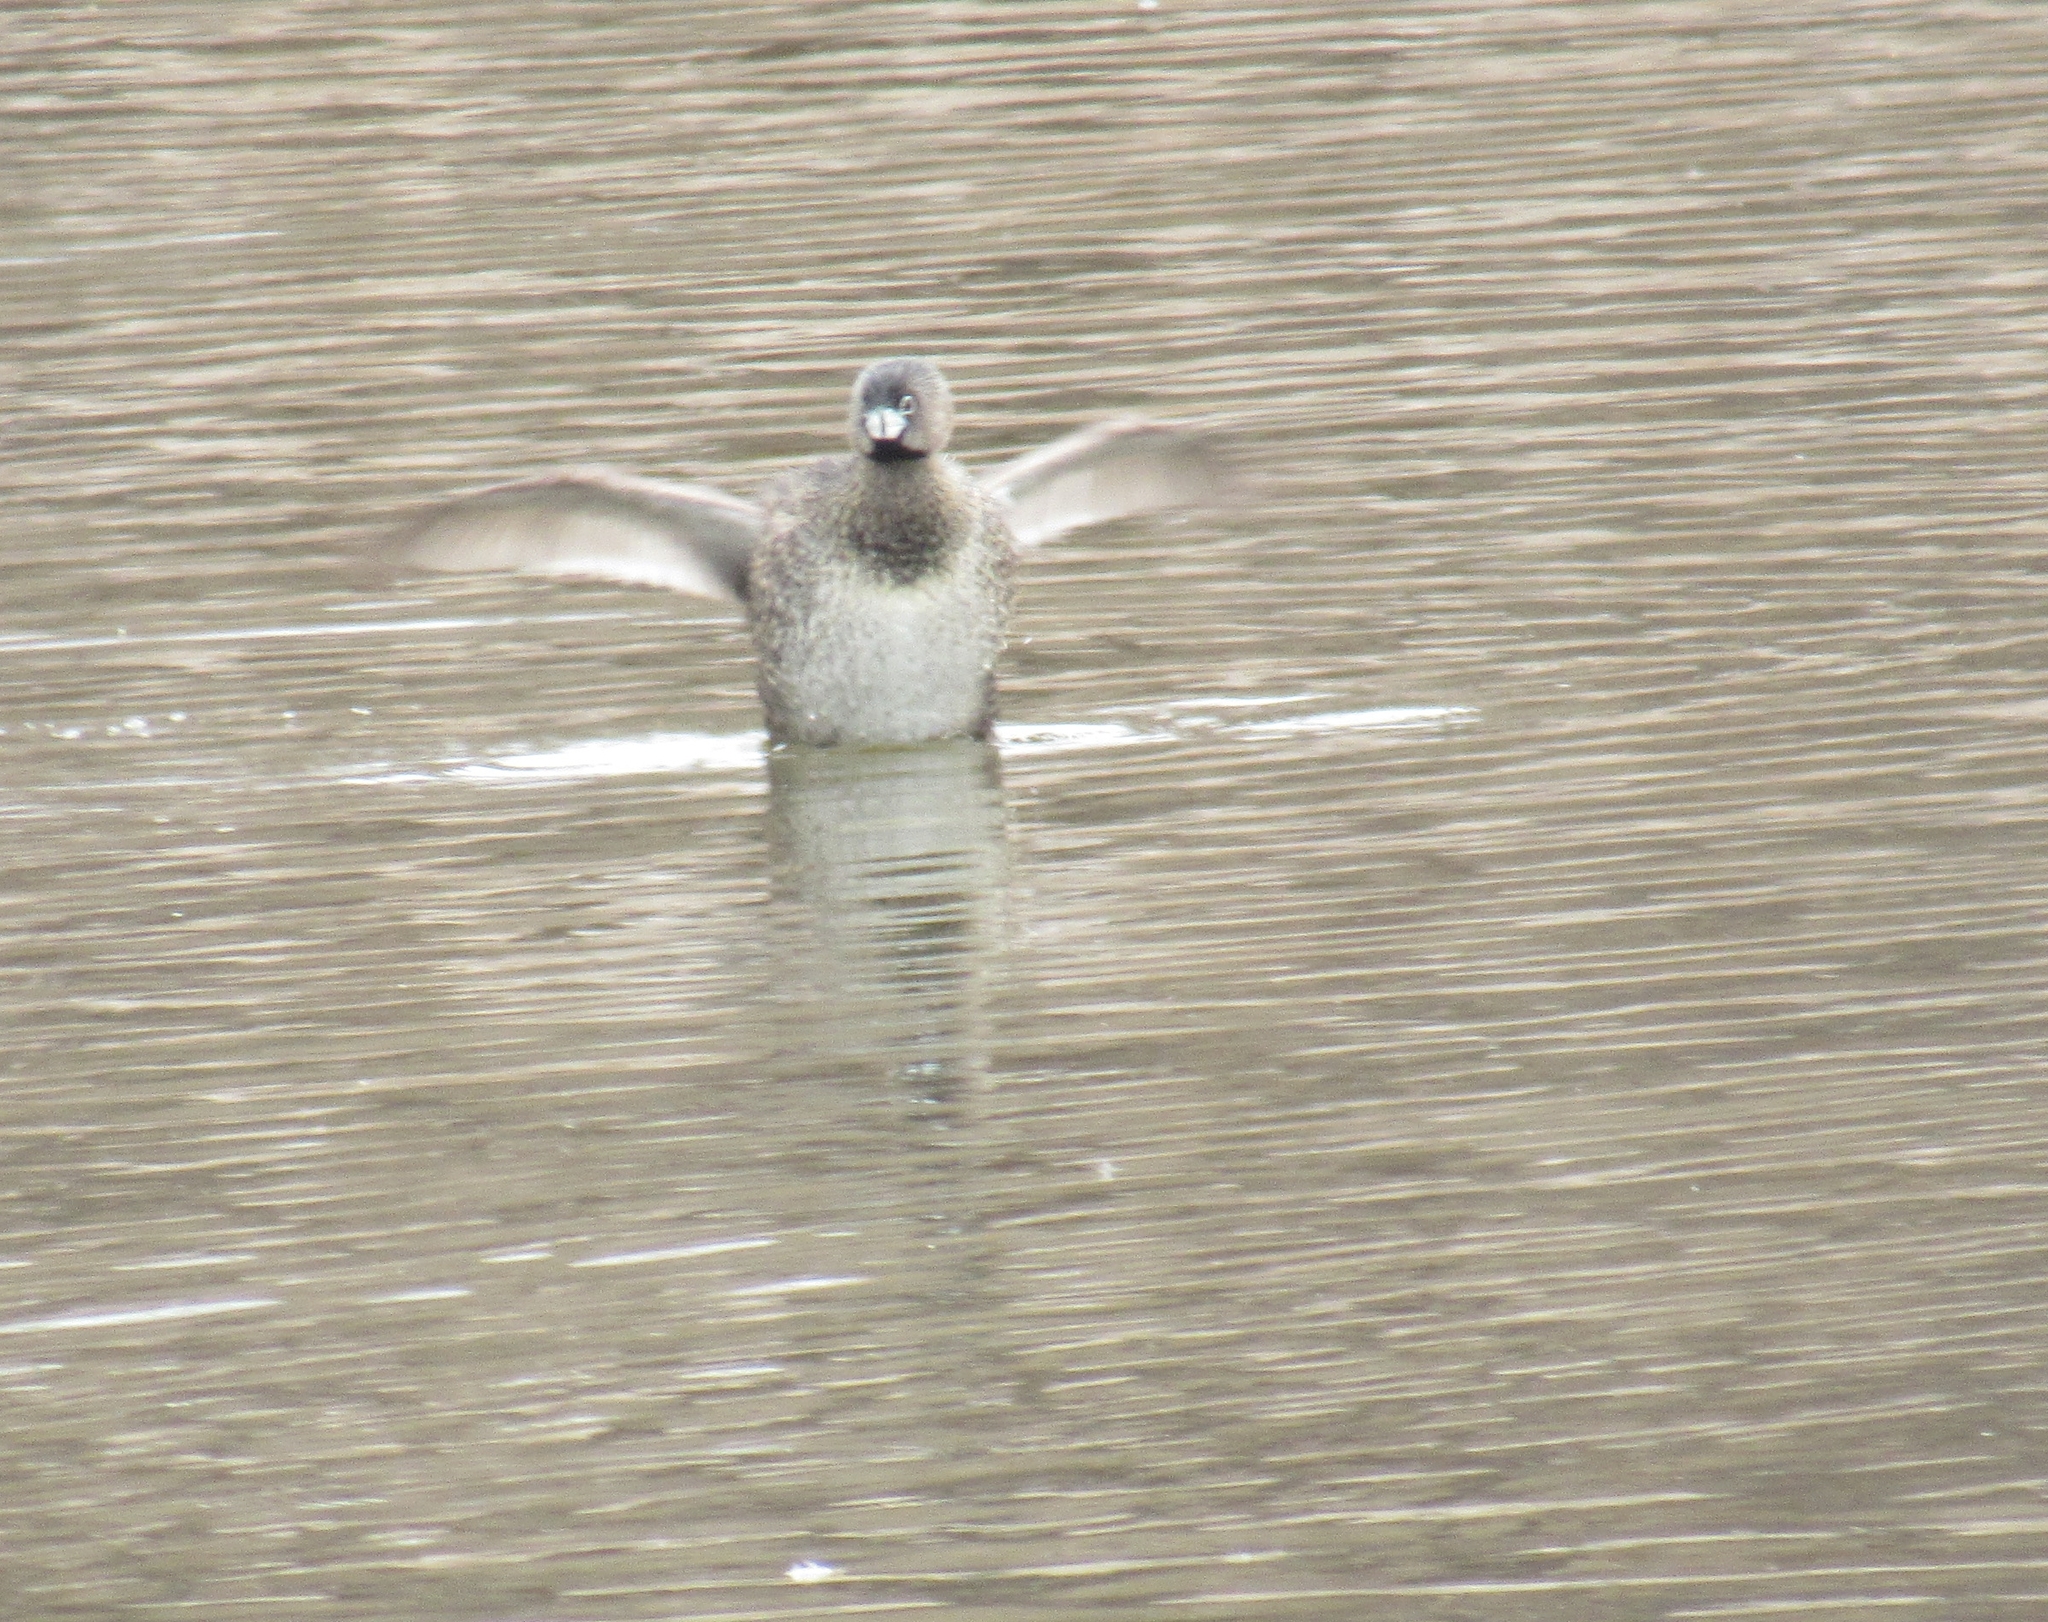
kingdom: Animalia
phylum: Chordata
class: Aves
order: Podicipediformes
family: Podicipedidae
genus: Podilymbus
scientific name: Podilymbus podiceps
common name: Pied-billed grebe
